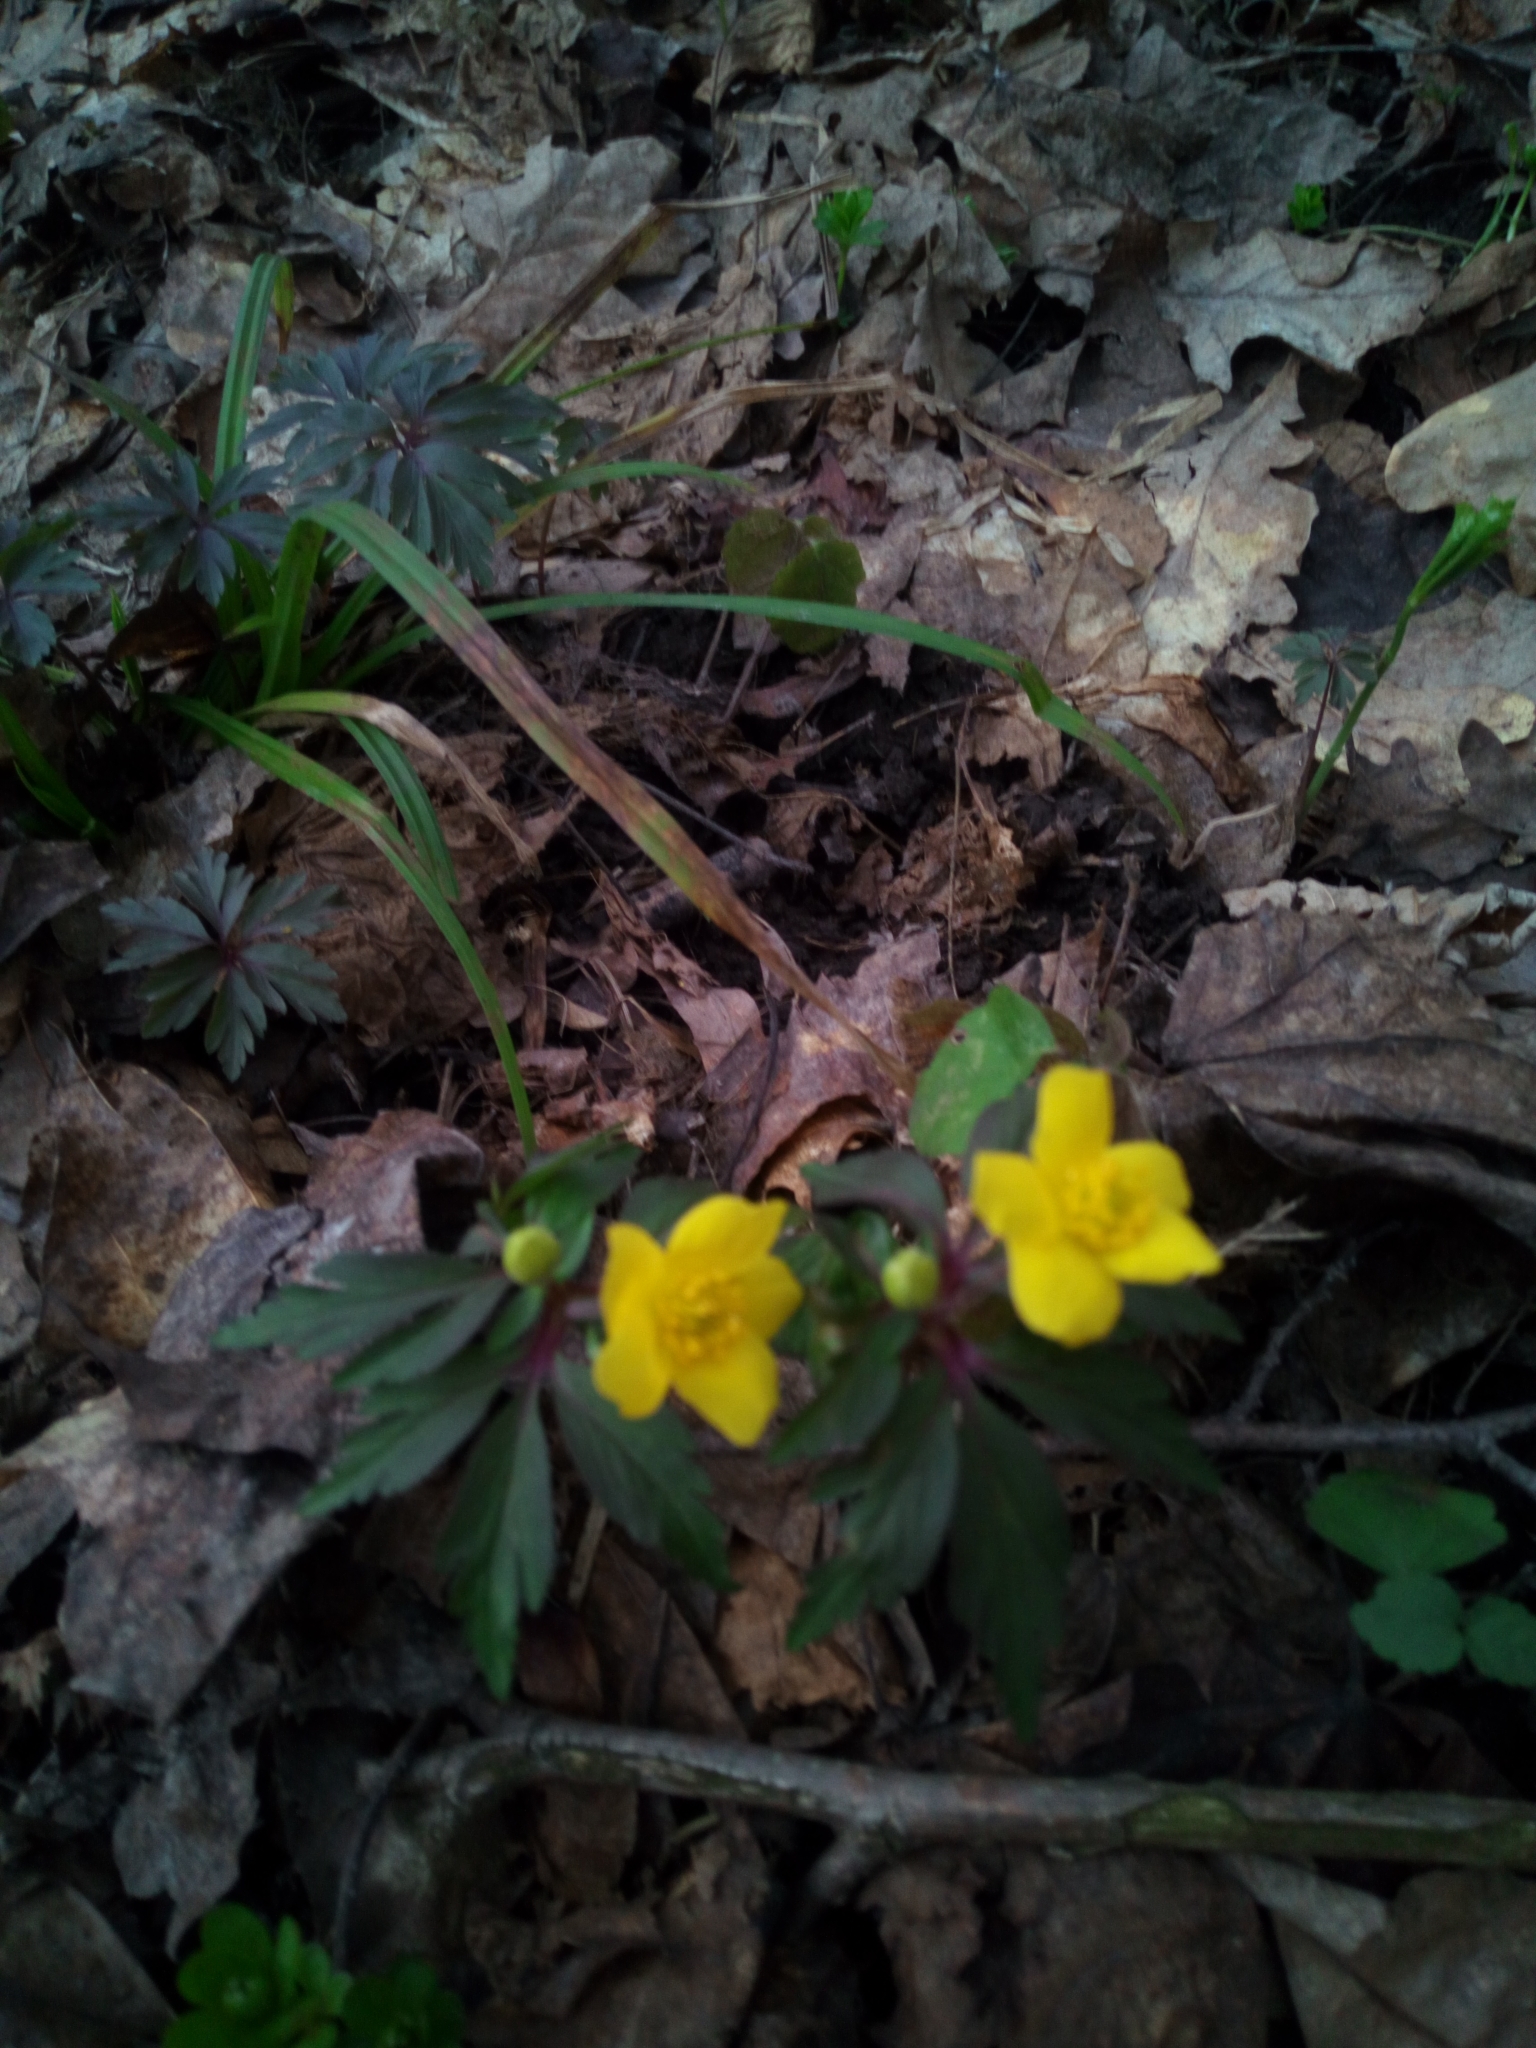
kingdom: Plantae
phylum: Tracheophyta
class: Magnoliopsida
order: Ranunculales
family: Ranunculaceae
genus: Anemone
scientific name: Anemone ranunculoides
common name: Yellow anemone
